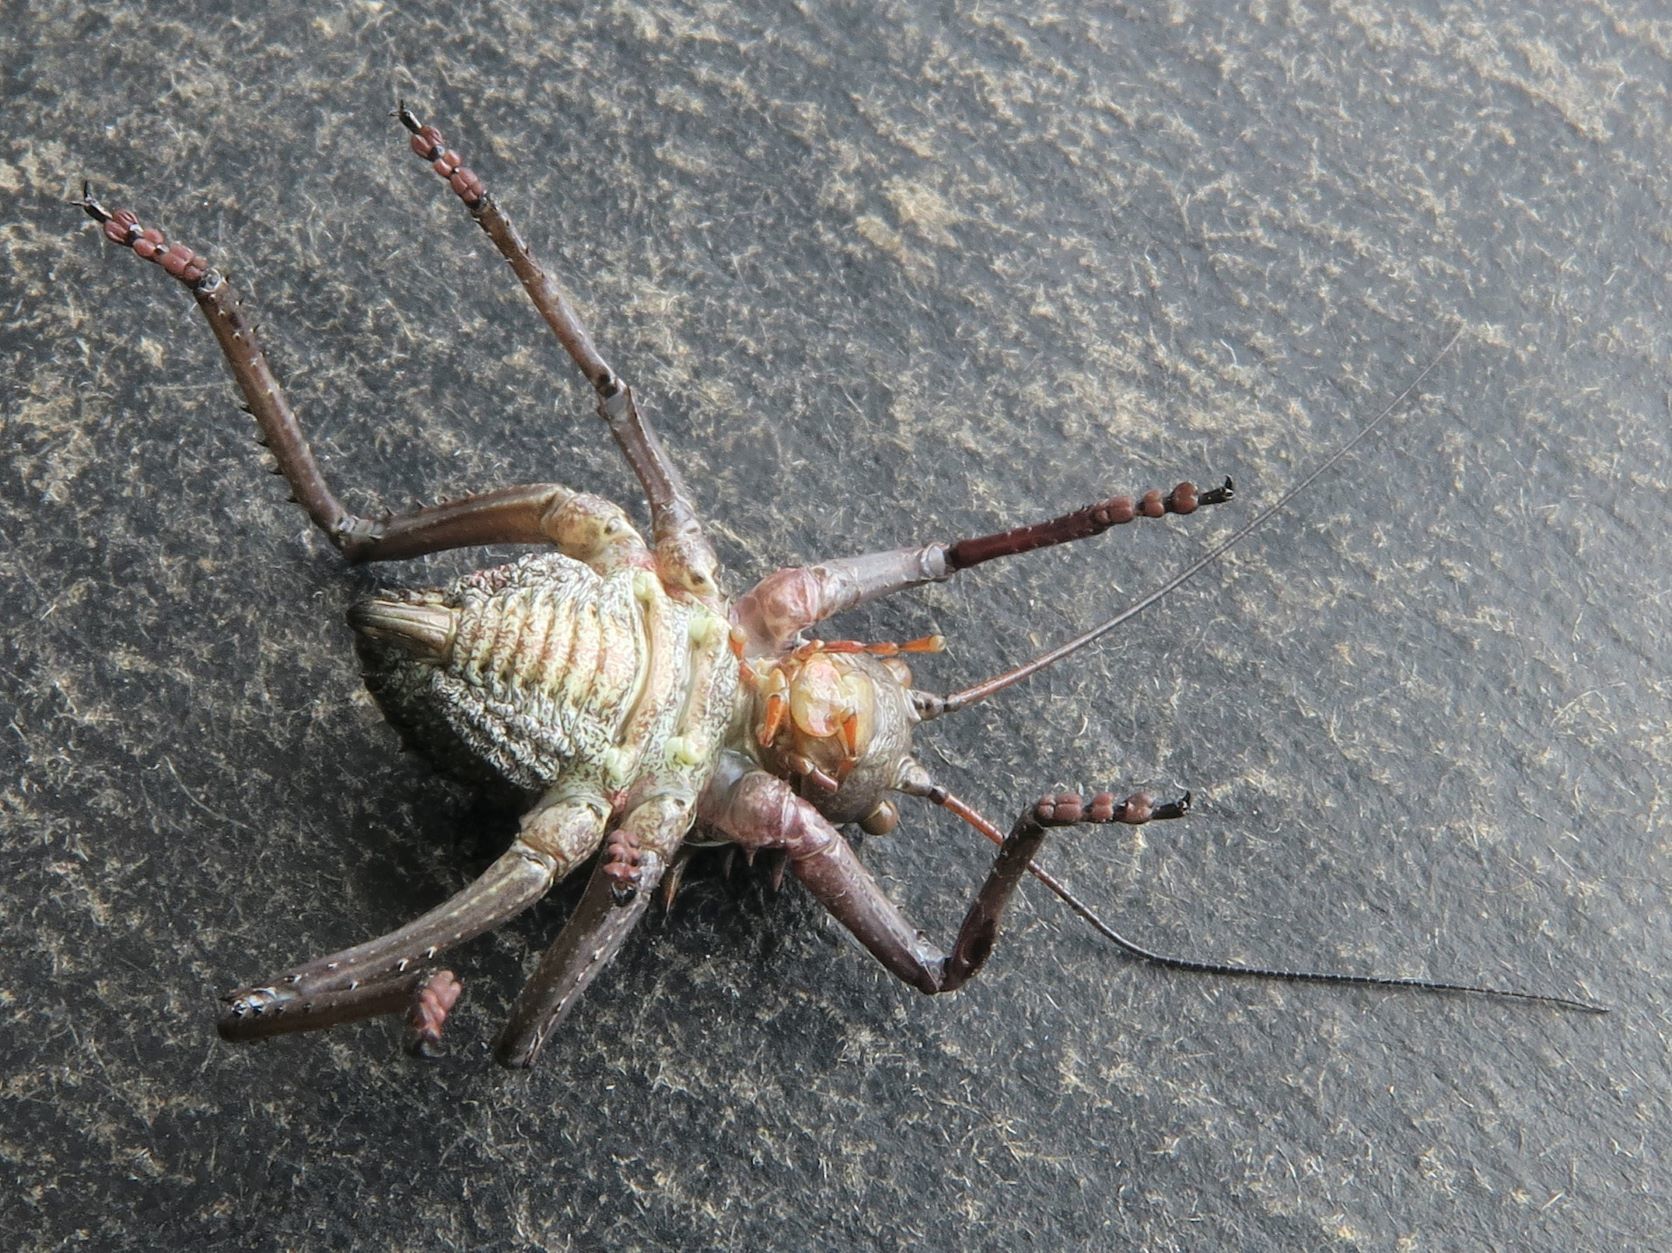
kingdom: Animalia
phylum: Arthropoda
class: Insecta
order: Orthoptera
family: Tettigoniidae
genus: Hetrodes
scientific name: Hetrodes pupus
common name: Koringkriek
